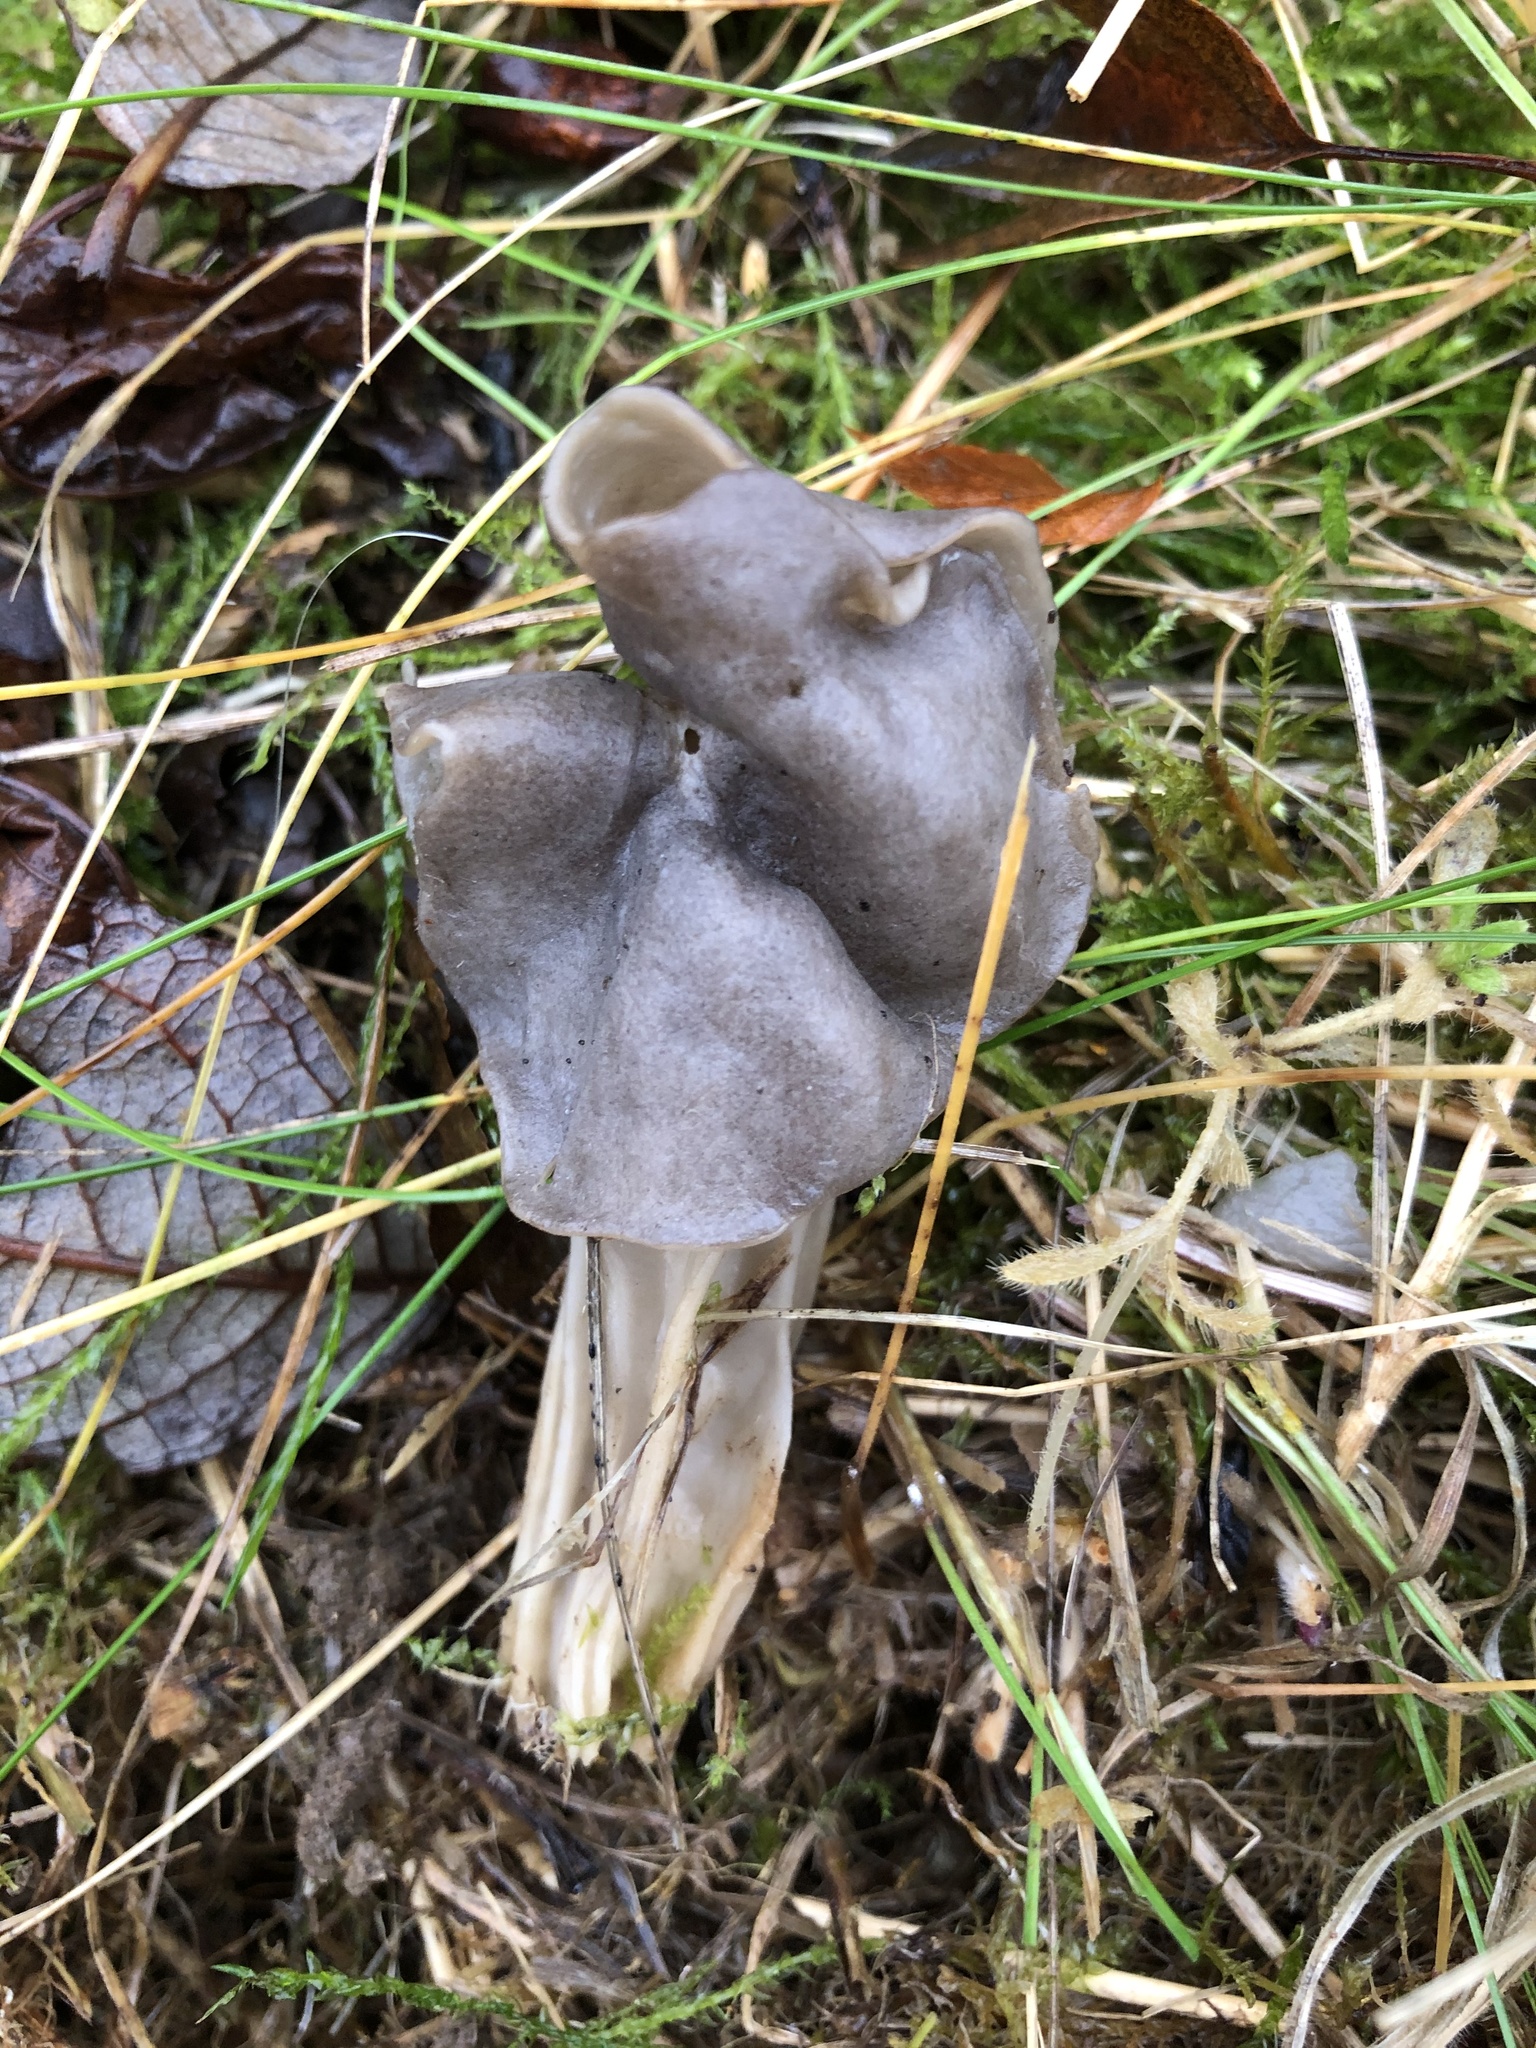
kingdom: Fungi
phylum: Ascomycota
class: Pezizomycetes
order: Pezizales
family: Helvellaceae
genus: Helvella
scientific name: Helvella lacunosa
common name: Elfin saddle
